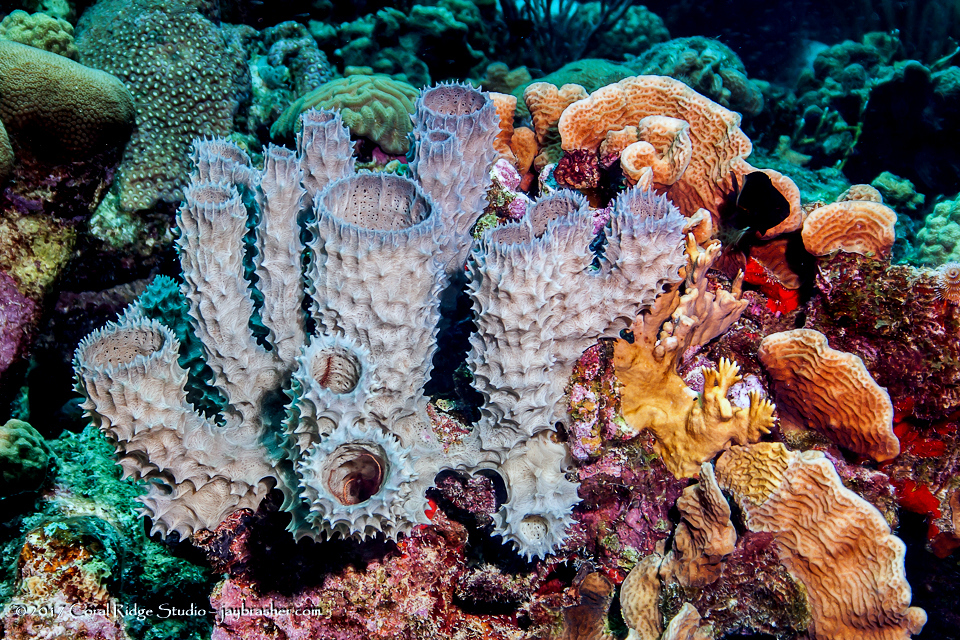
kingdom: Animalia
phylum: Porifera
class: Demospongiae
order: Haplosclerida
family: Callyspongiidae
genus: Callyspongia
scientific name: Callyspongia aculeata
